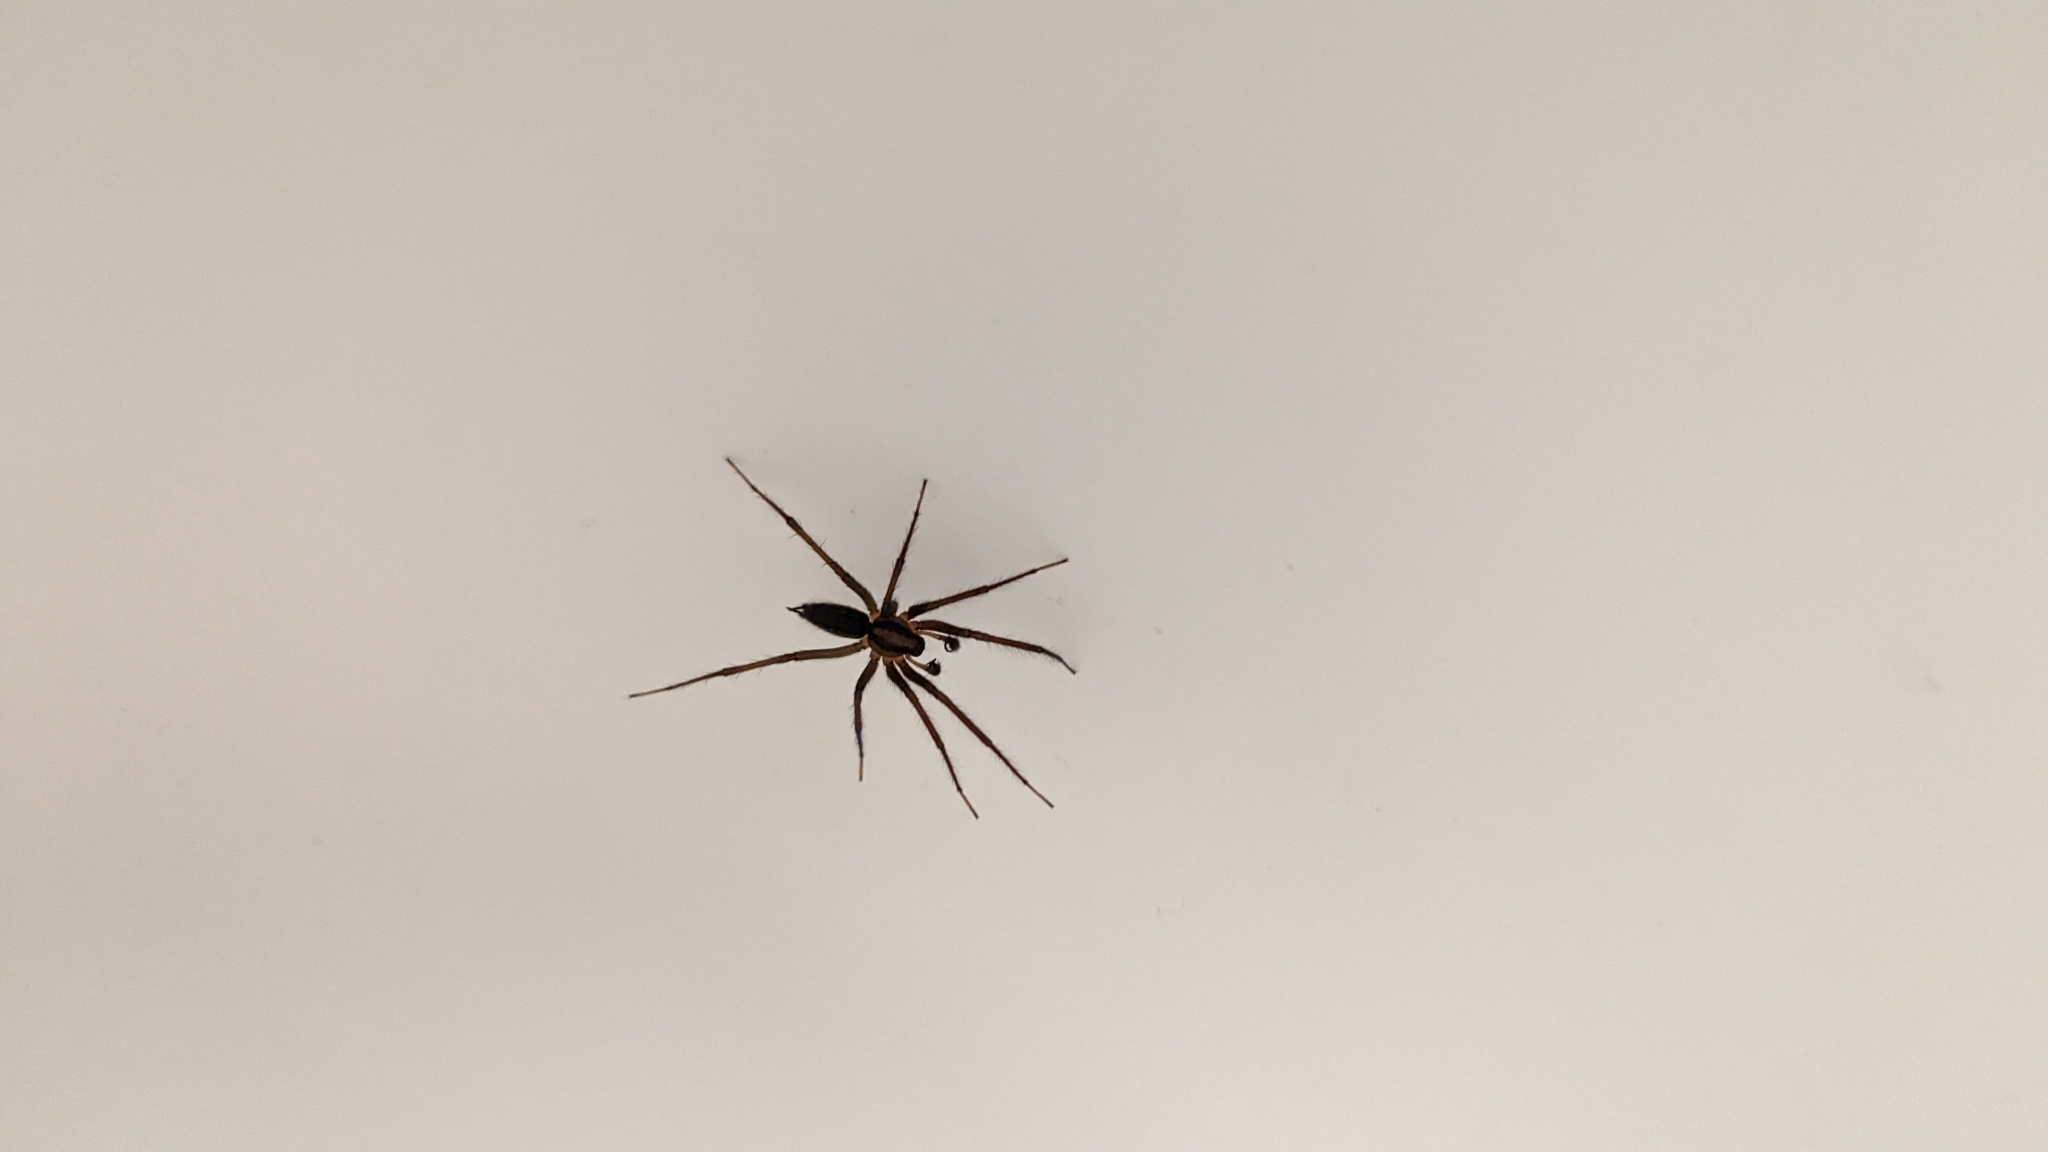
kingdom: Animalia
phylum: Arthropoda
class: Arachnida
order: Araneae
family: Agelenidae
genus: Agelenopsis
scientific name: Agelenopsis
